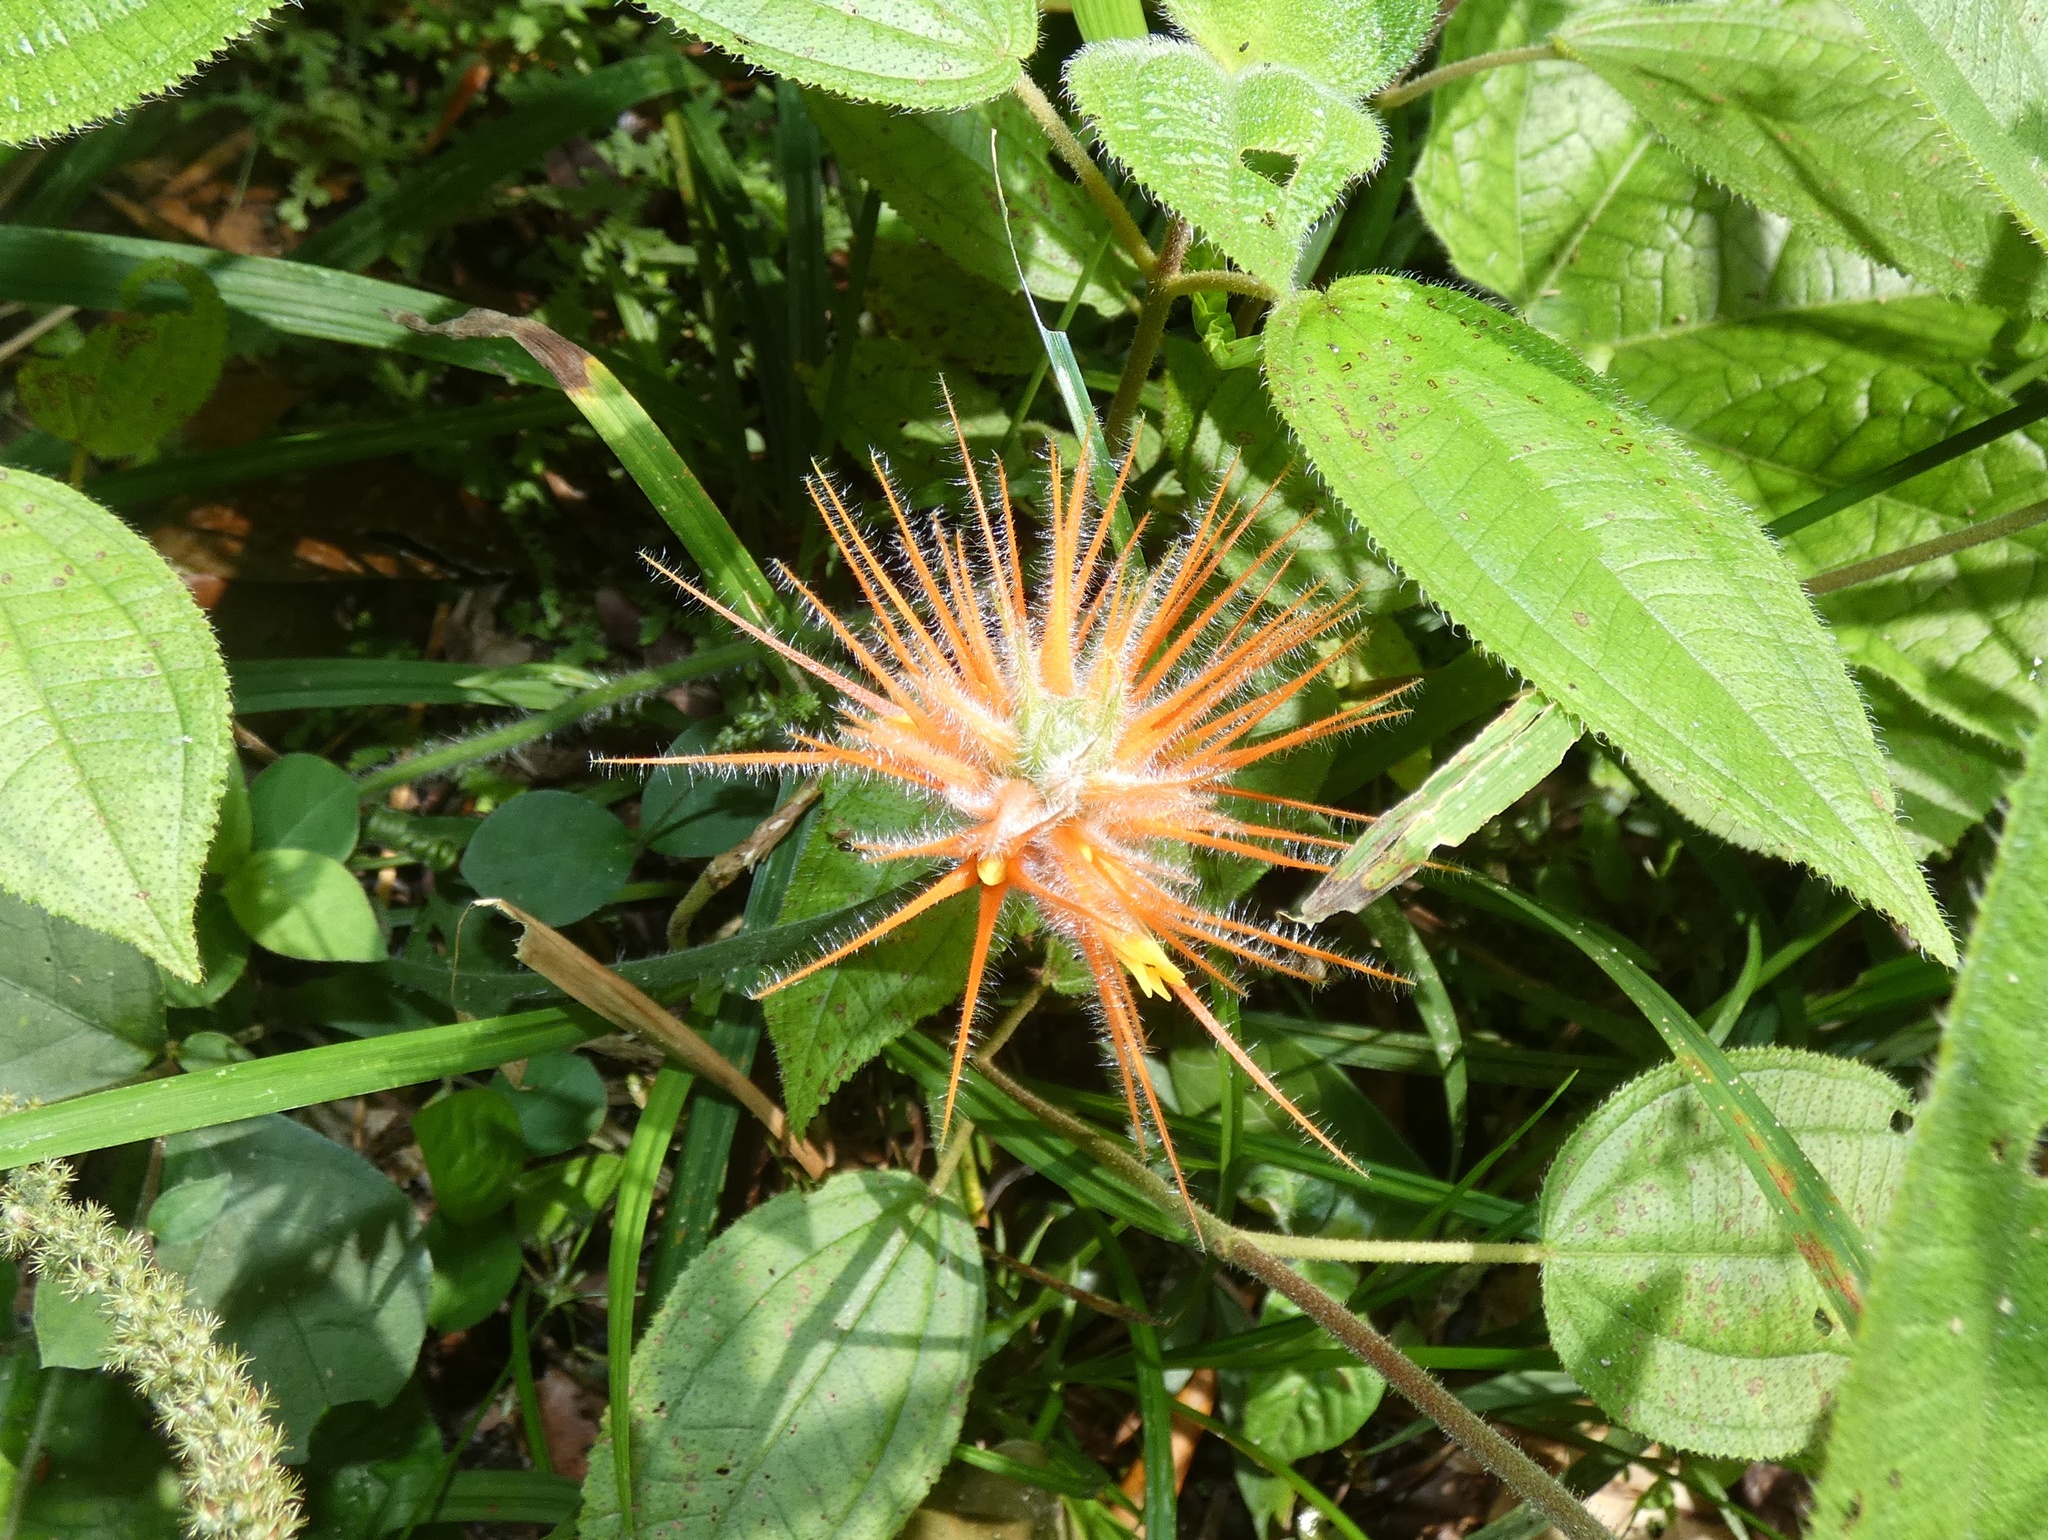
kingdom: Plantae
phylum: Tracheophyta
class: Magnoliopsida
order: Cucurbitales
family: Cucurbitaceae
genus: Gurania
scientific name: Gurania makoyana
